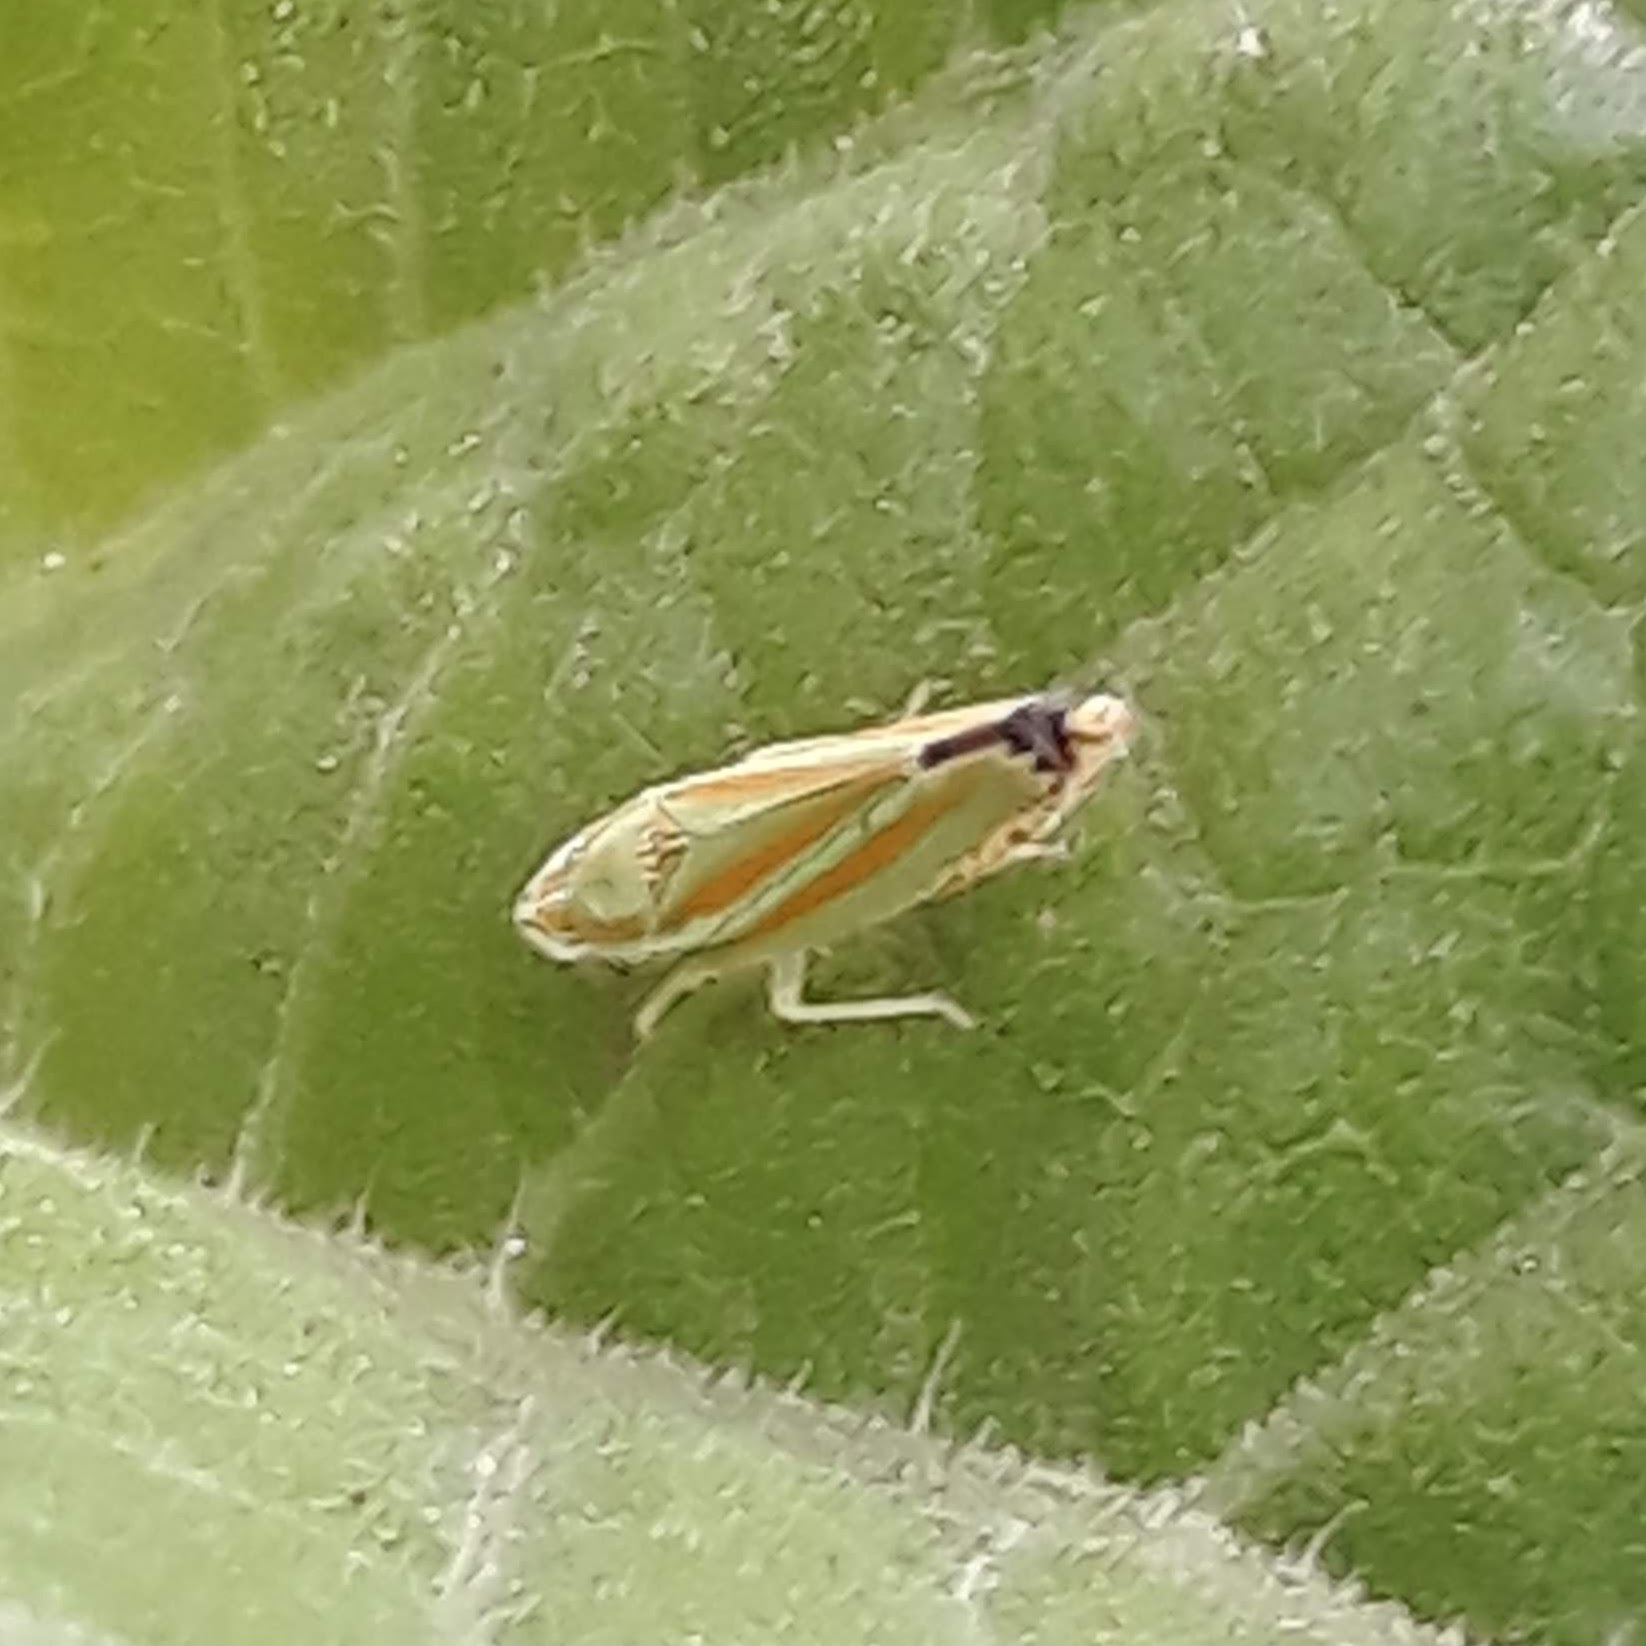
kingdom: Animalia
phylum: Arthropoda
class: Insecta
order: Hemiptera
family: Cicadellidae
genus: Graphocephala
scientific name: Graphocephala versuta
